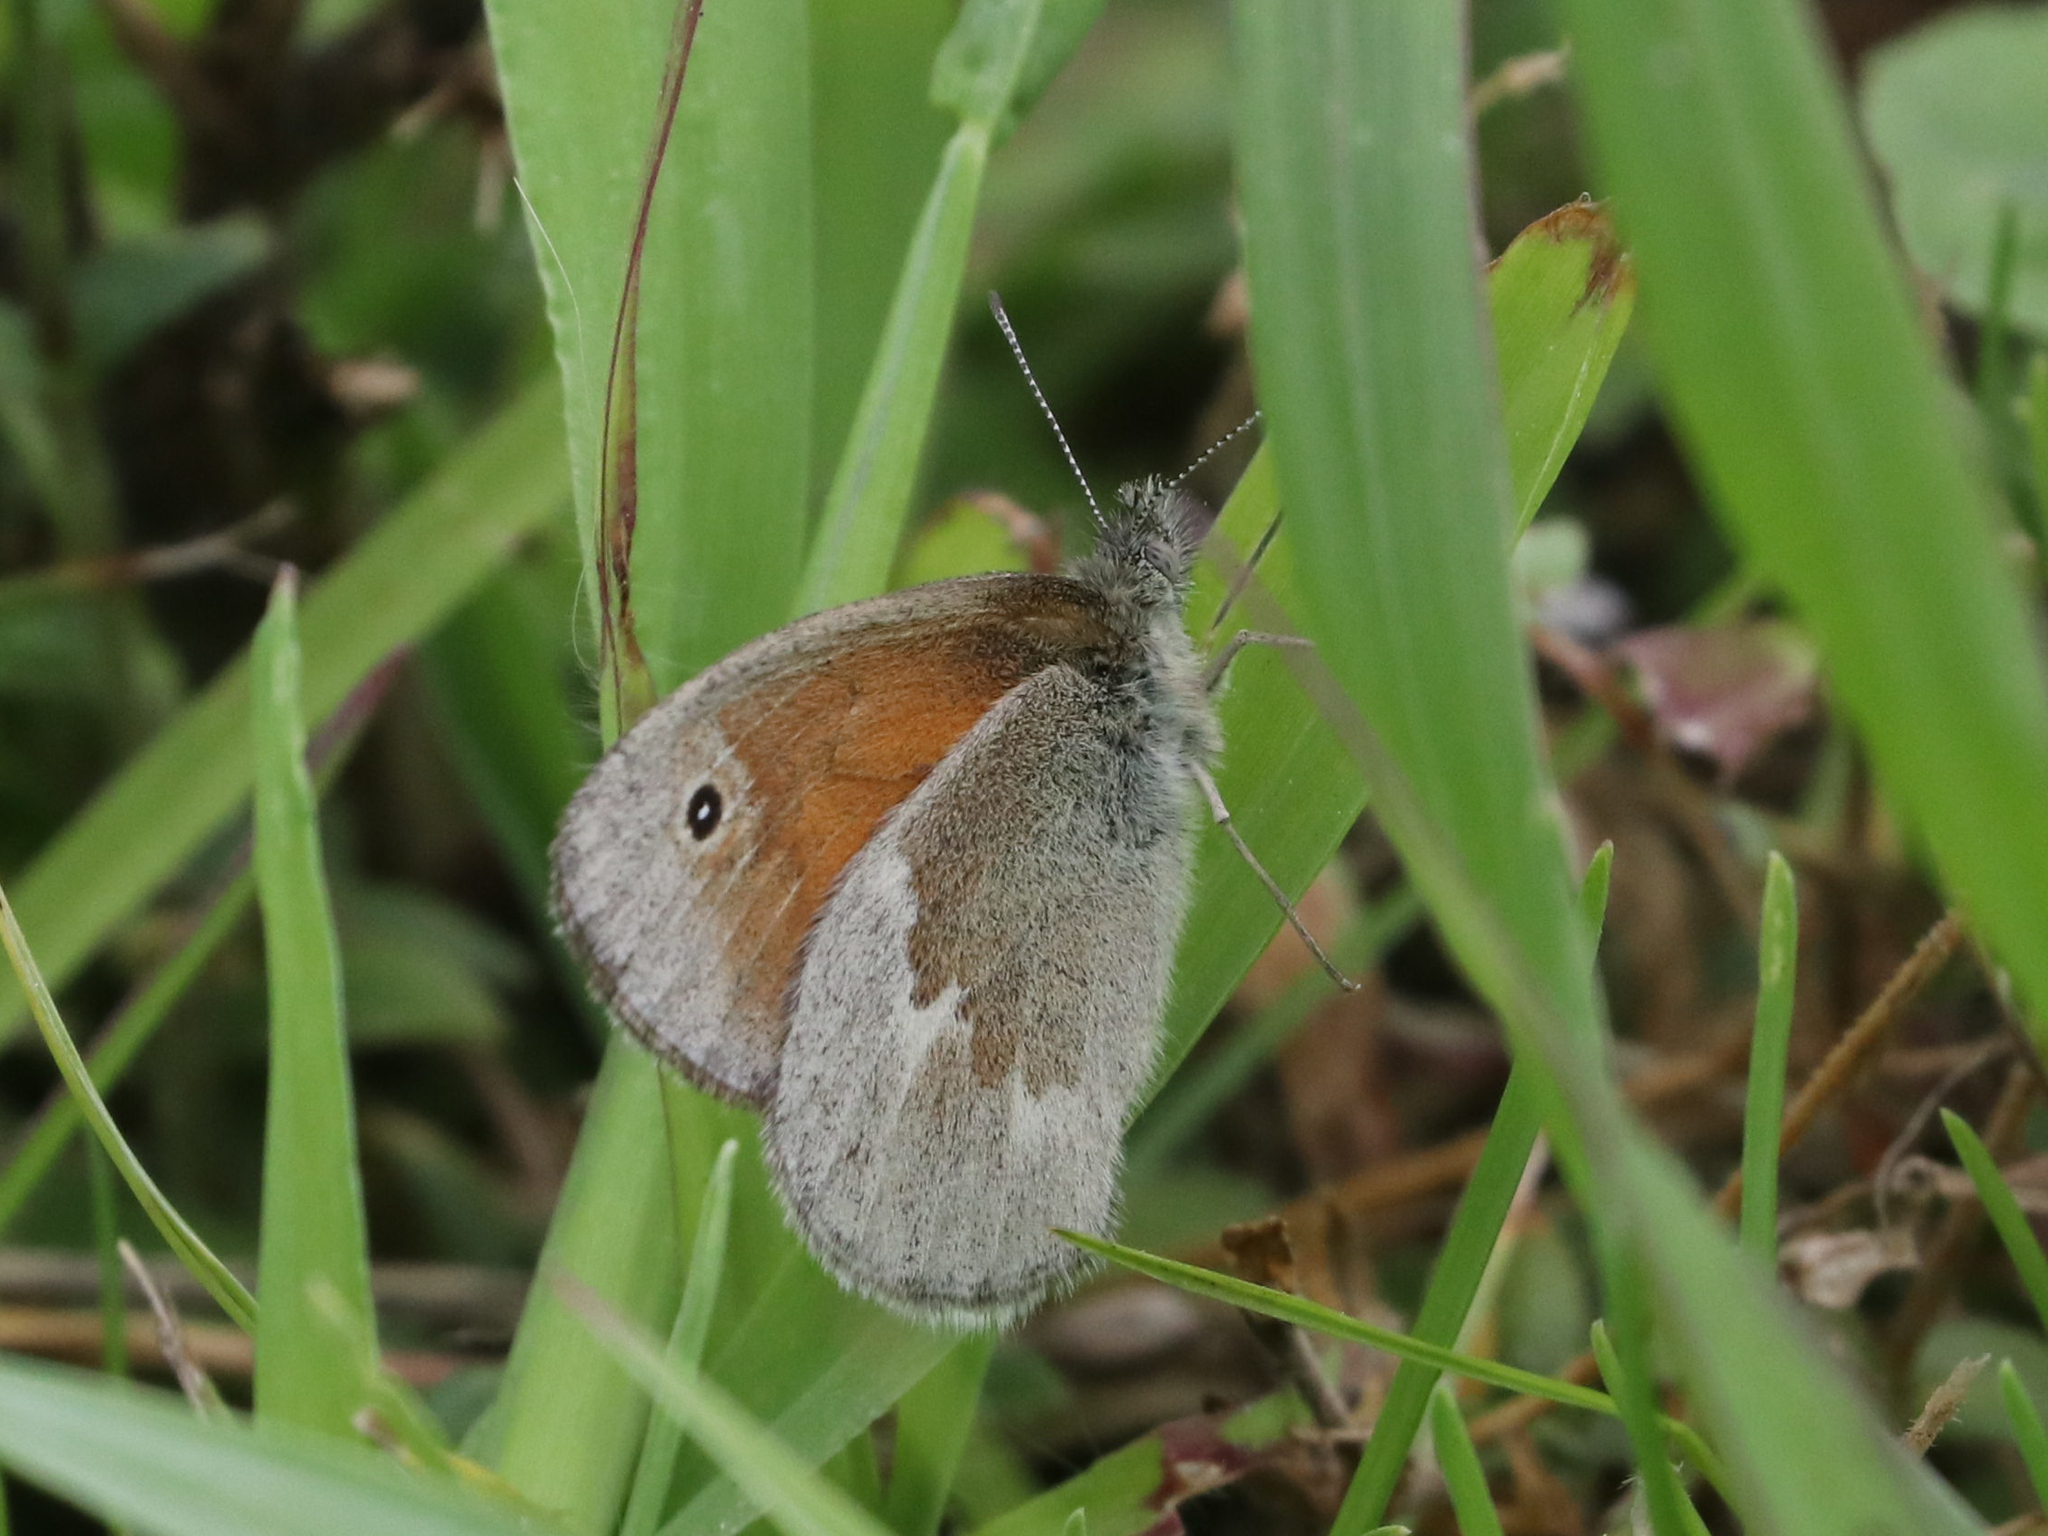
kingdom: Animalia
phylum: Arthropoda
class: Insecta
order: Lepidoptera
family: Nymphalidae
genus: Coenonympha
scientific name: Coenonympha california
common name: Common ringlet
